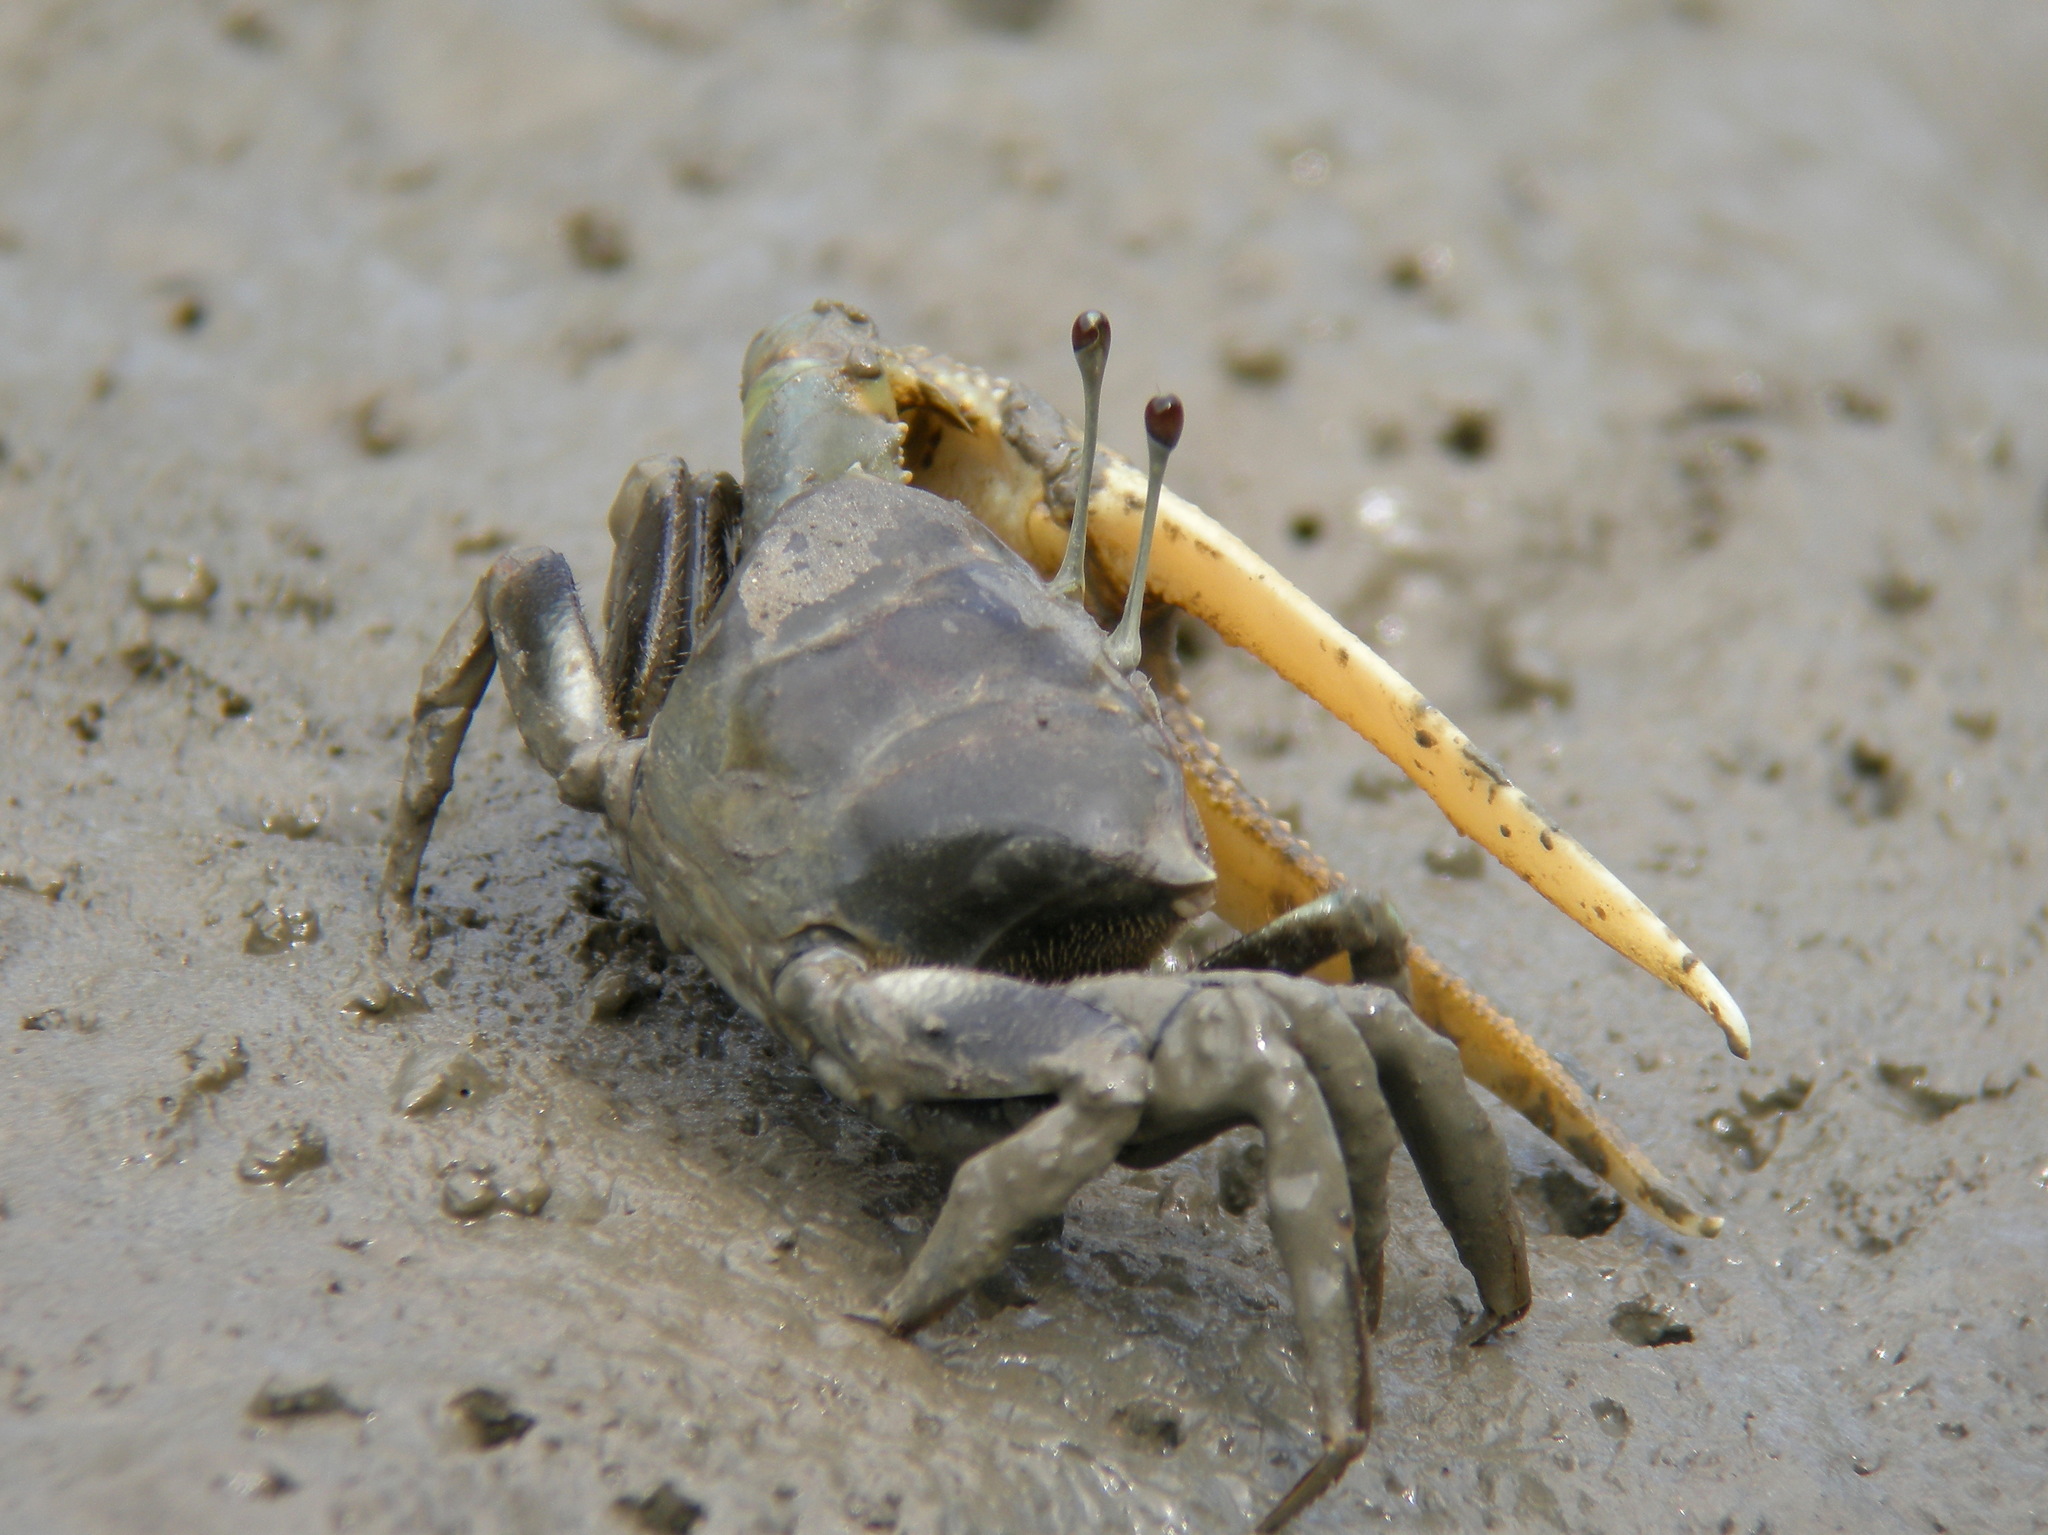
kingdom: Animalia
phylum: Arthropoda
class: Malacostraca
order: Decapoda
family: Ocypodidae
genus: Tubuca
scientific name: Tubuca paradussumieri
